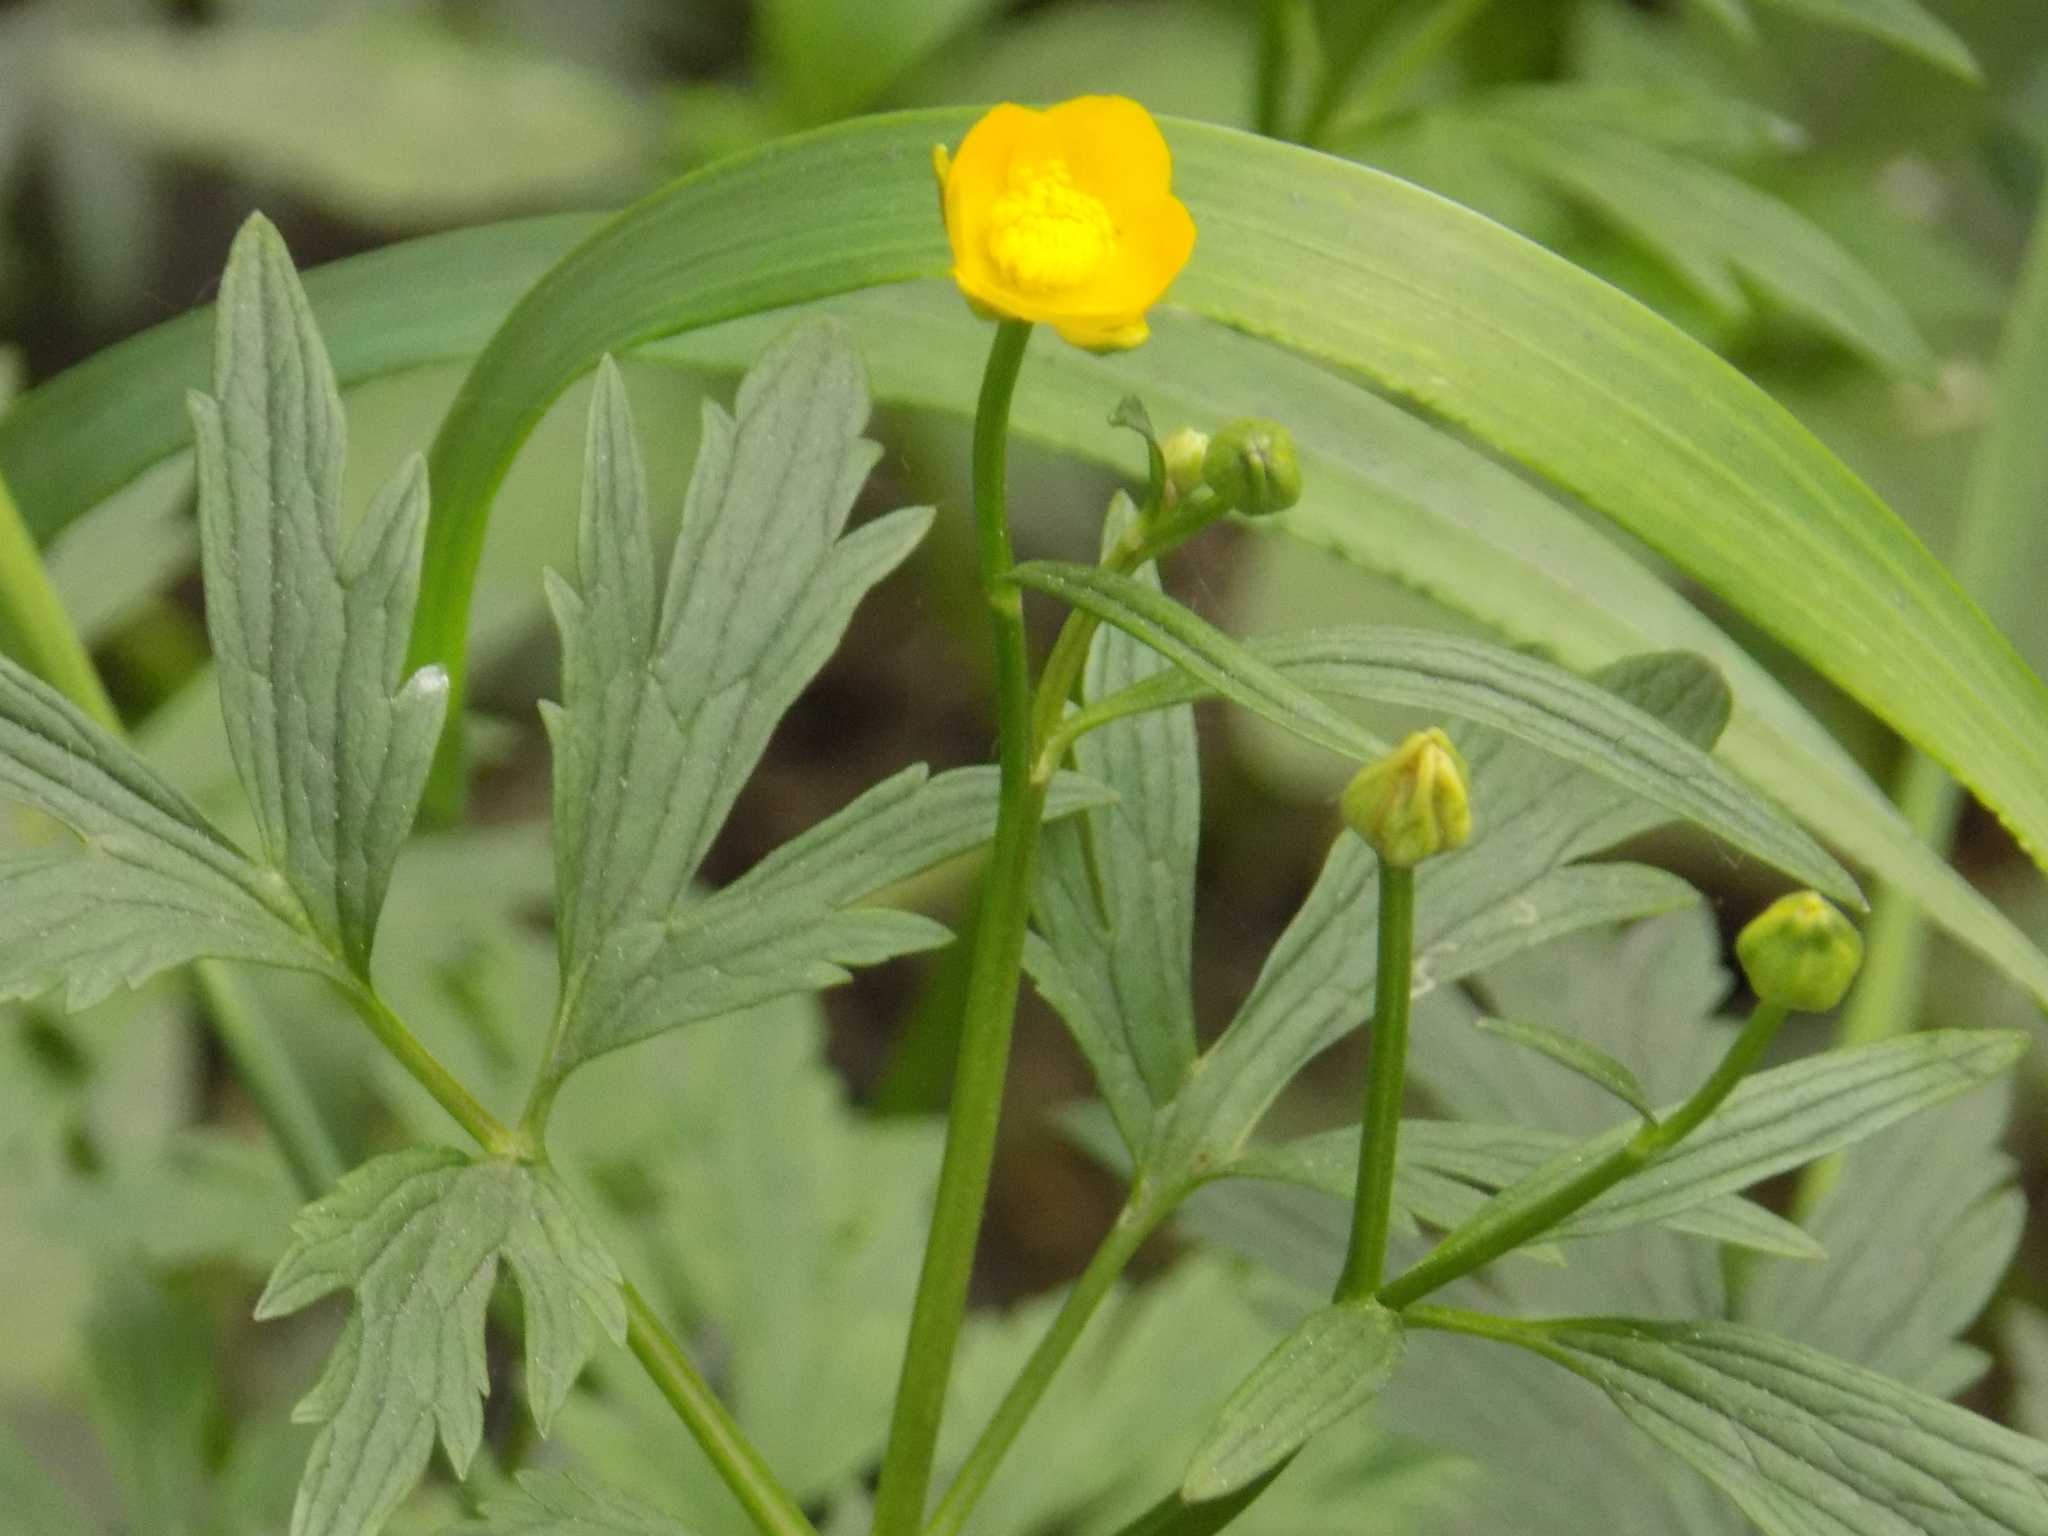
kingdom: Plantae
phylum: Tracheophyta
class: Magnoliopsida
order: Ranunculales
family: Ranunculaceae
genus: Ranunculus
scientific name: Ranunculus repens
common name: Creeping buttercup
